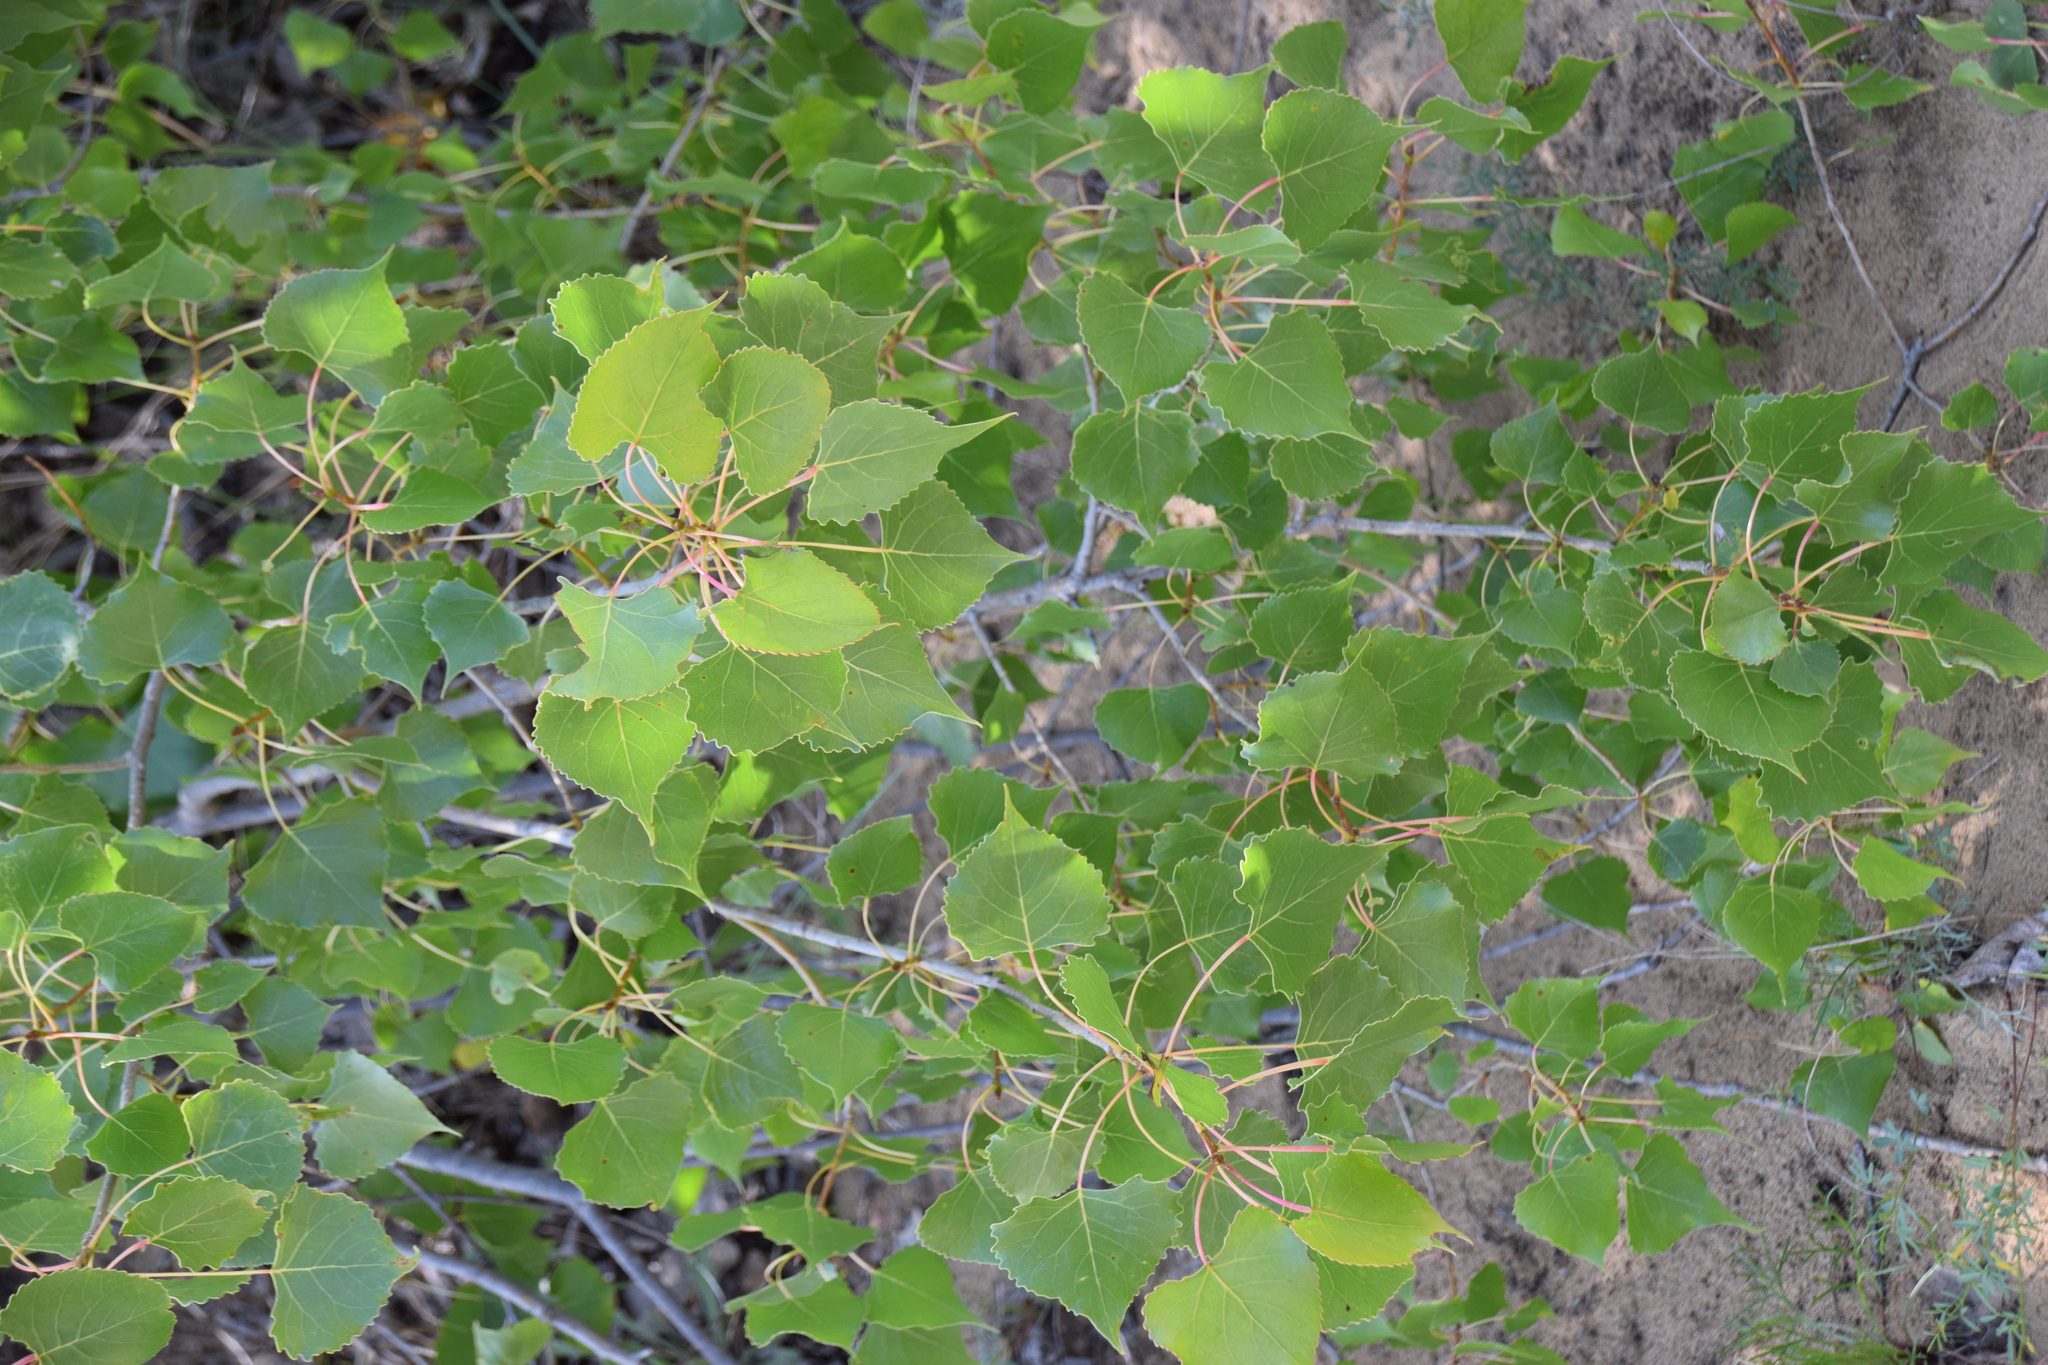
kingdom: Plantae
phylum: Tracheophyta
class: Magnoliopsida
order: Malpighiales
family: Salicaceae
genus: Populus
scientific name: Populus deltoides
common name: Eastern cottonwood
